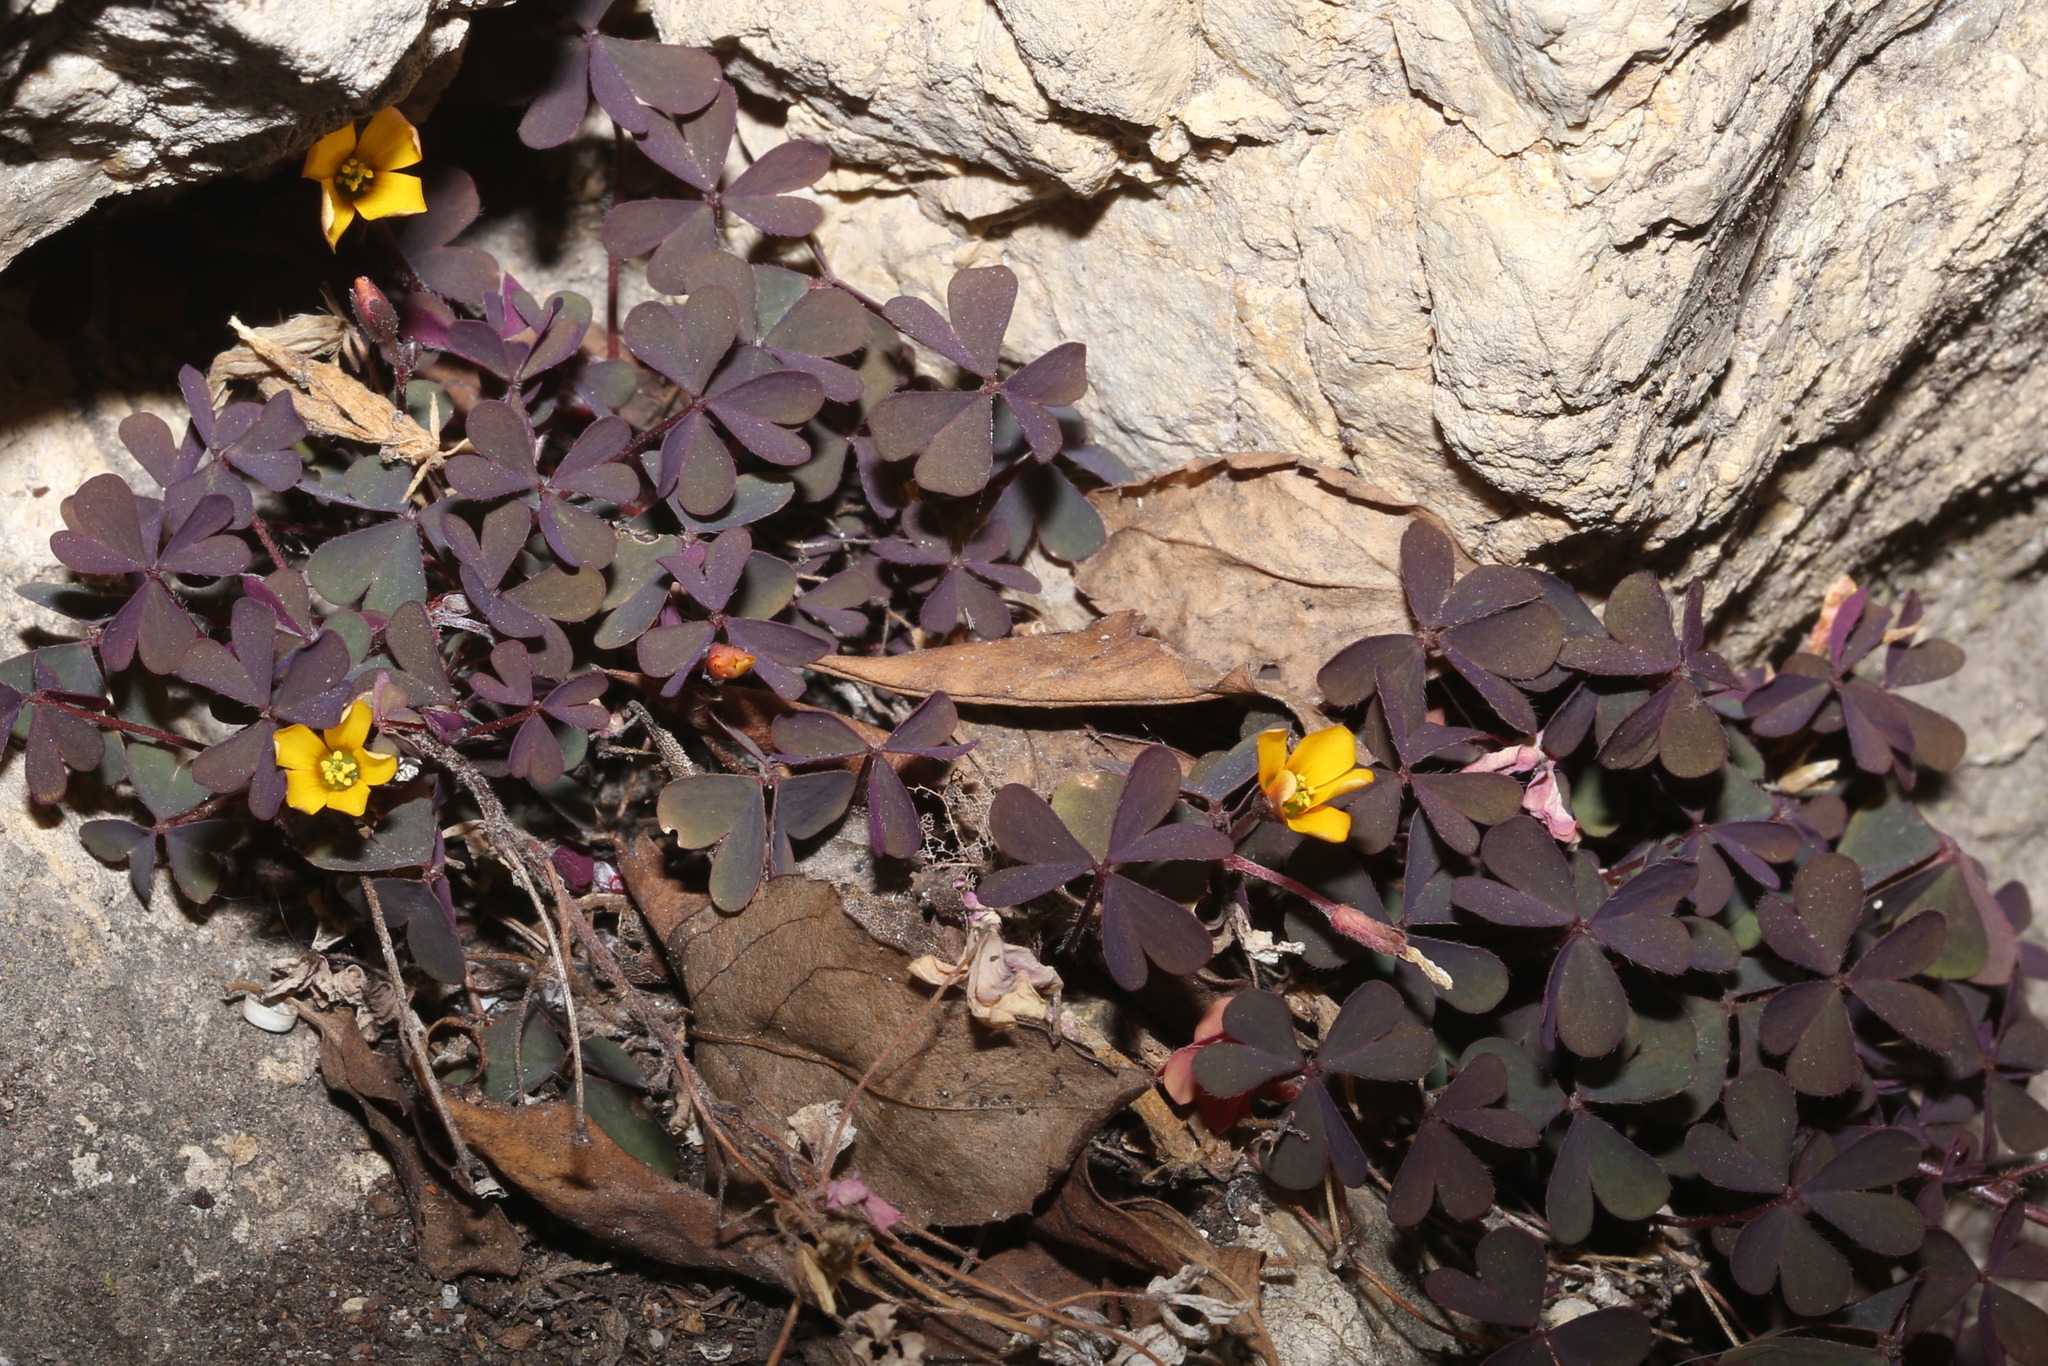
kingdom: Plantae
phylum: Tracheophyta
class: Magnoliopsida
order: Oxalidales
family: Oxalidaceae
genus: Oxalis
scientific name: Oxalis corniculata
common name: Procumbent yellow-sorrel
